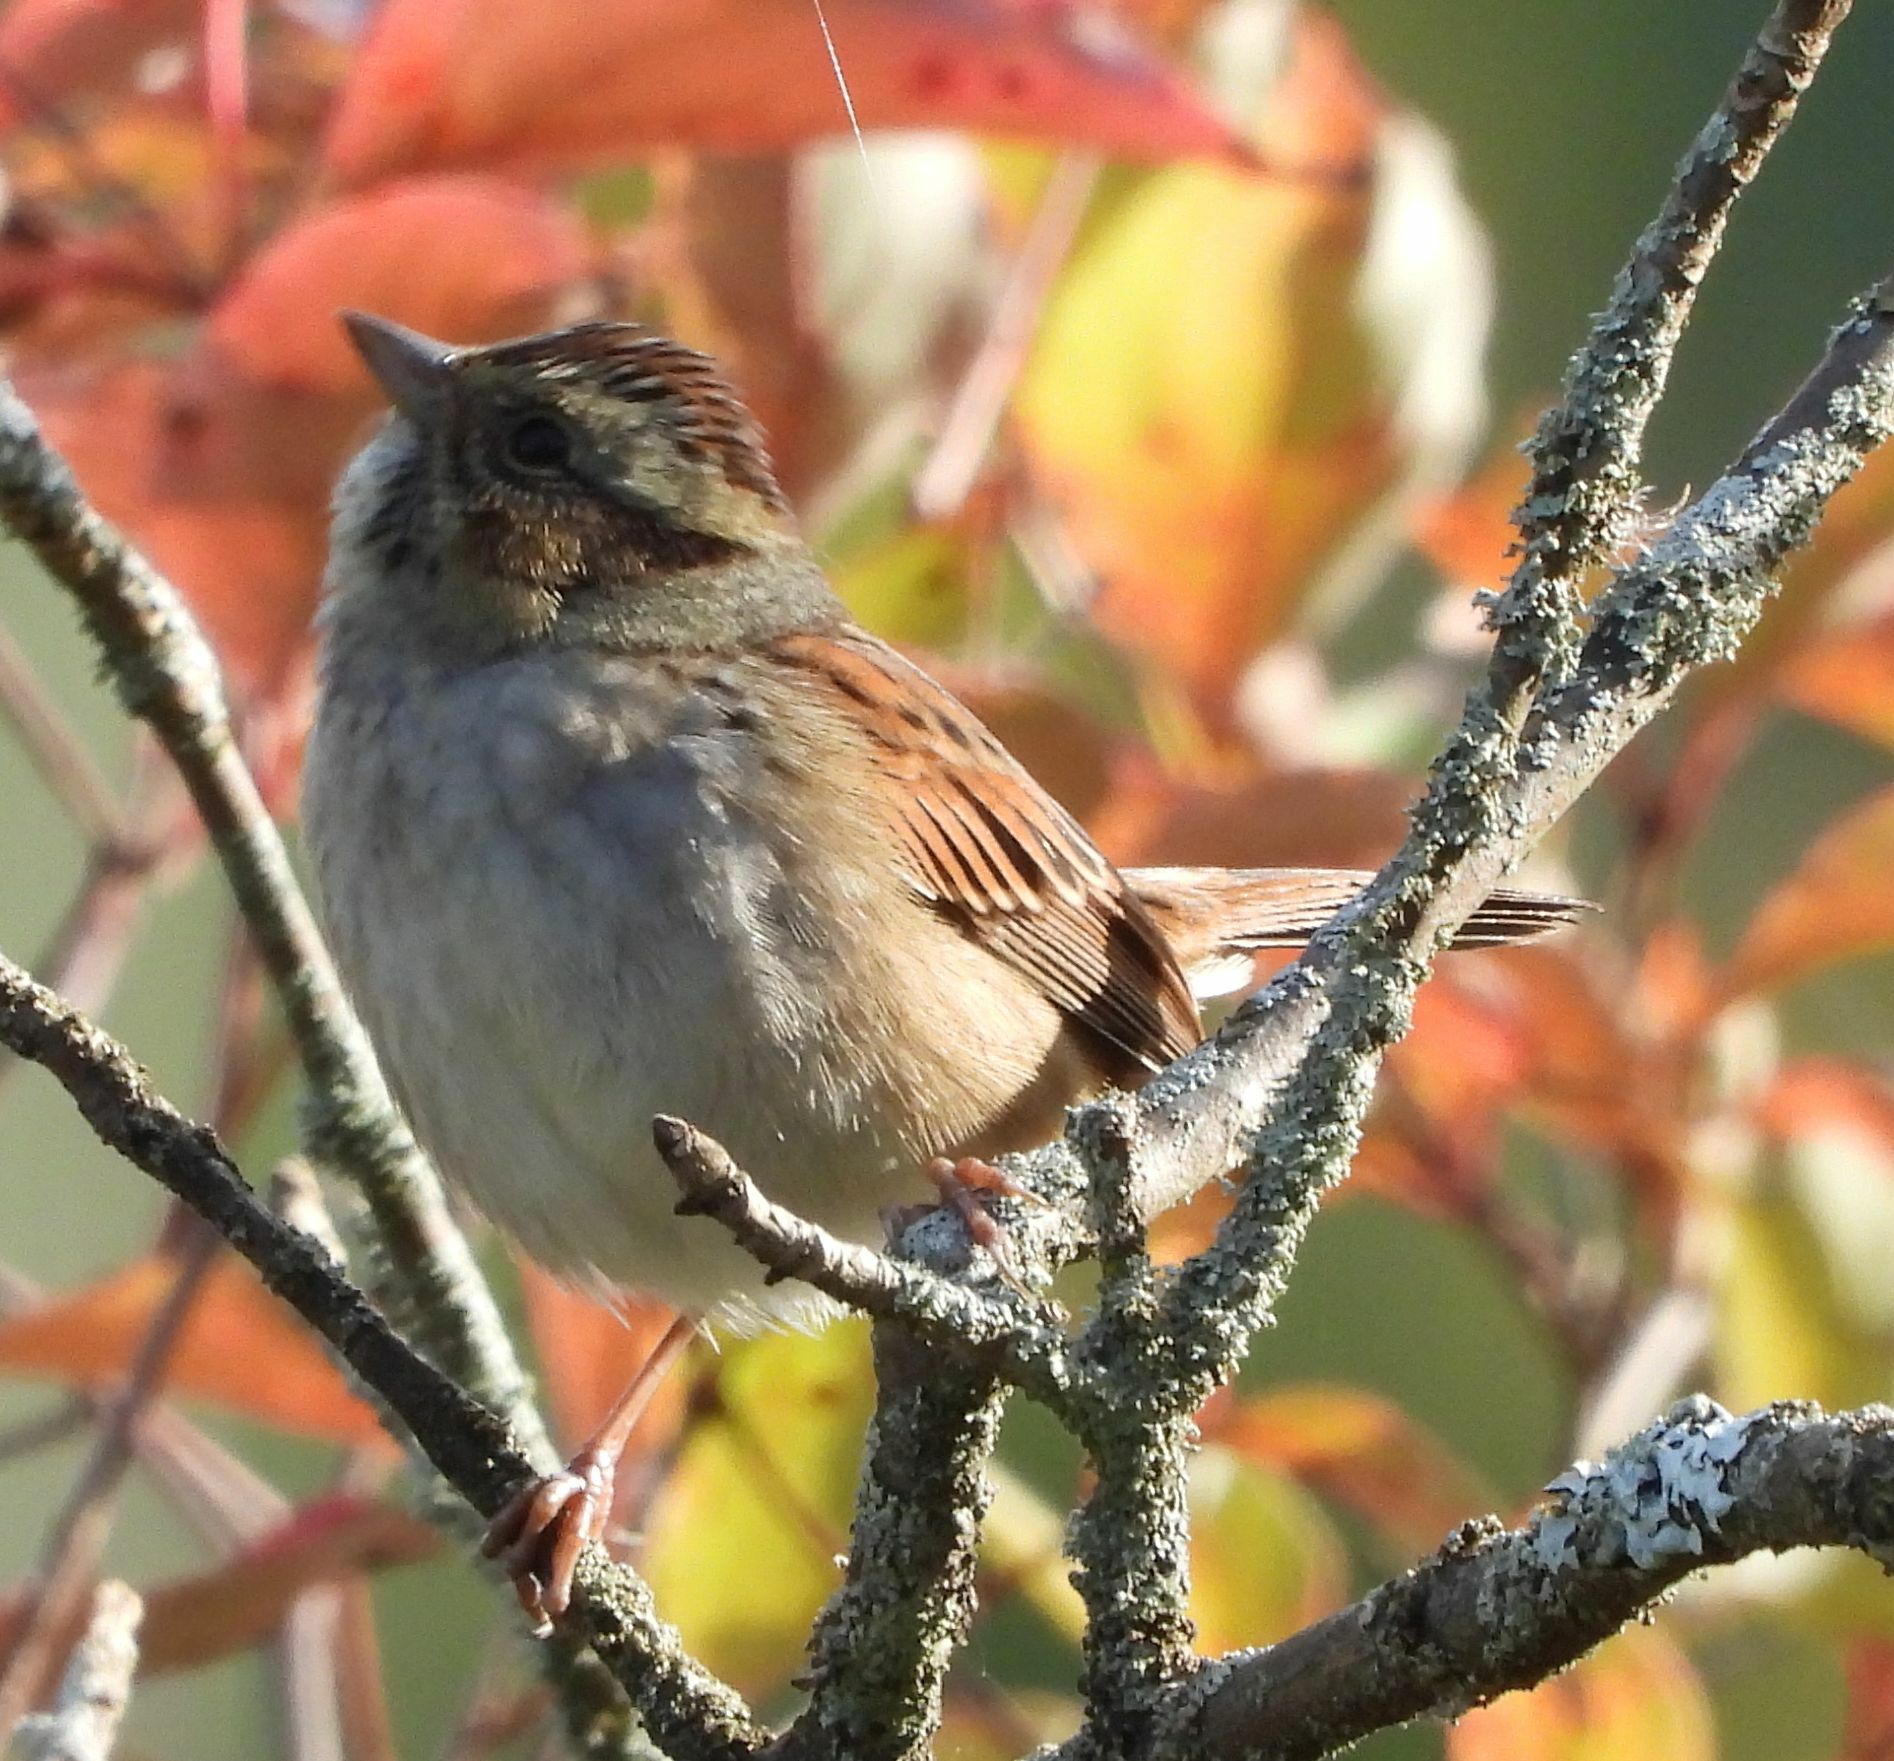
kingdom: Animalia
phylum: Chordata
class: Aves
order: Passeriformes
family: Passerellidae
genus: Melospiza
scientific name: Melospiza georgiana
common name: Swamp sparrow
